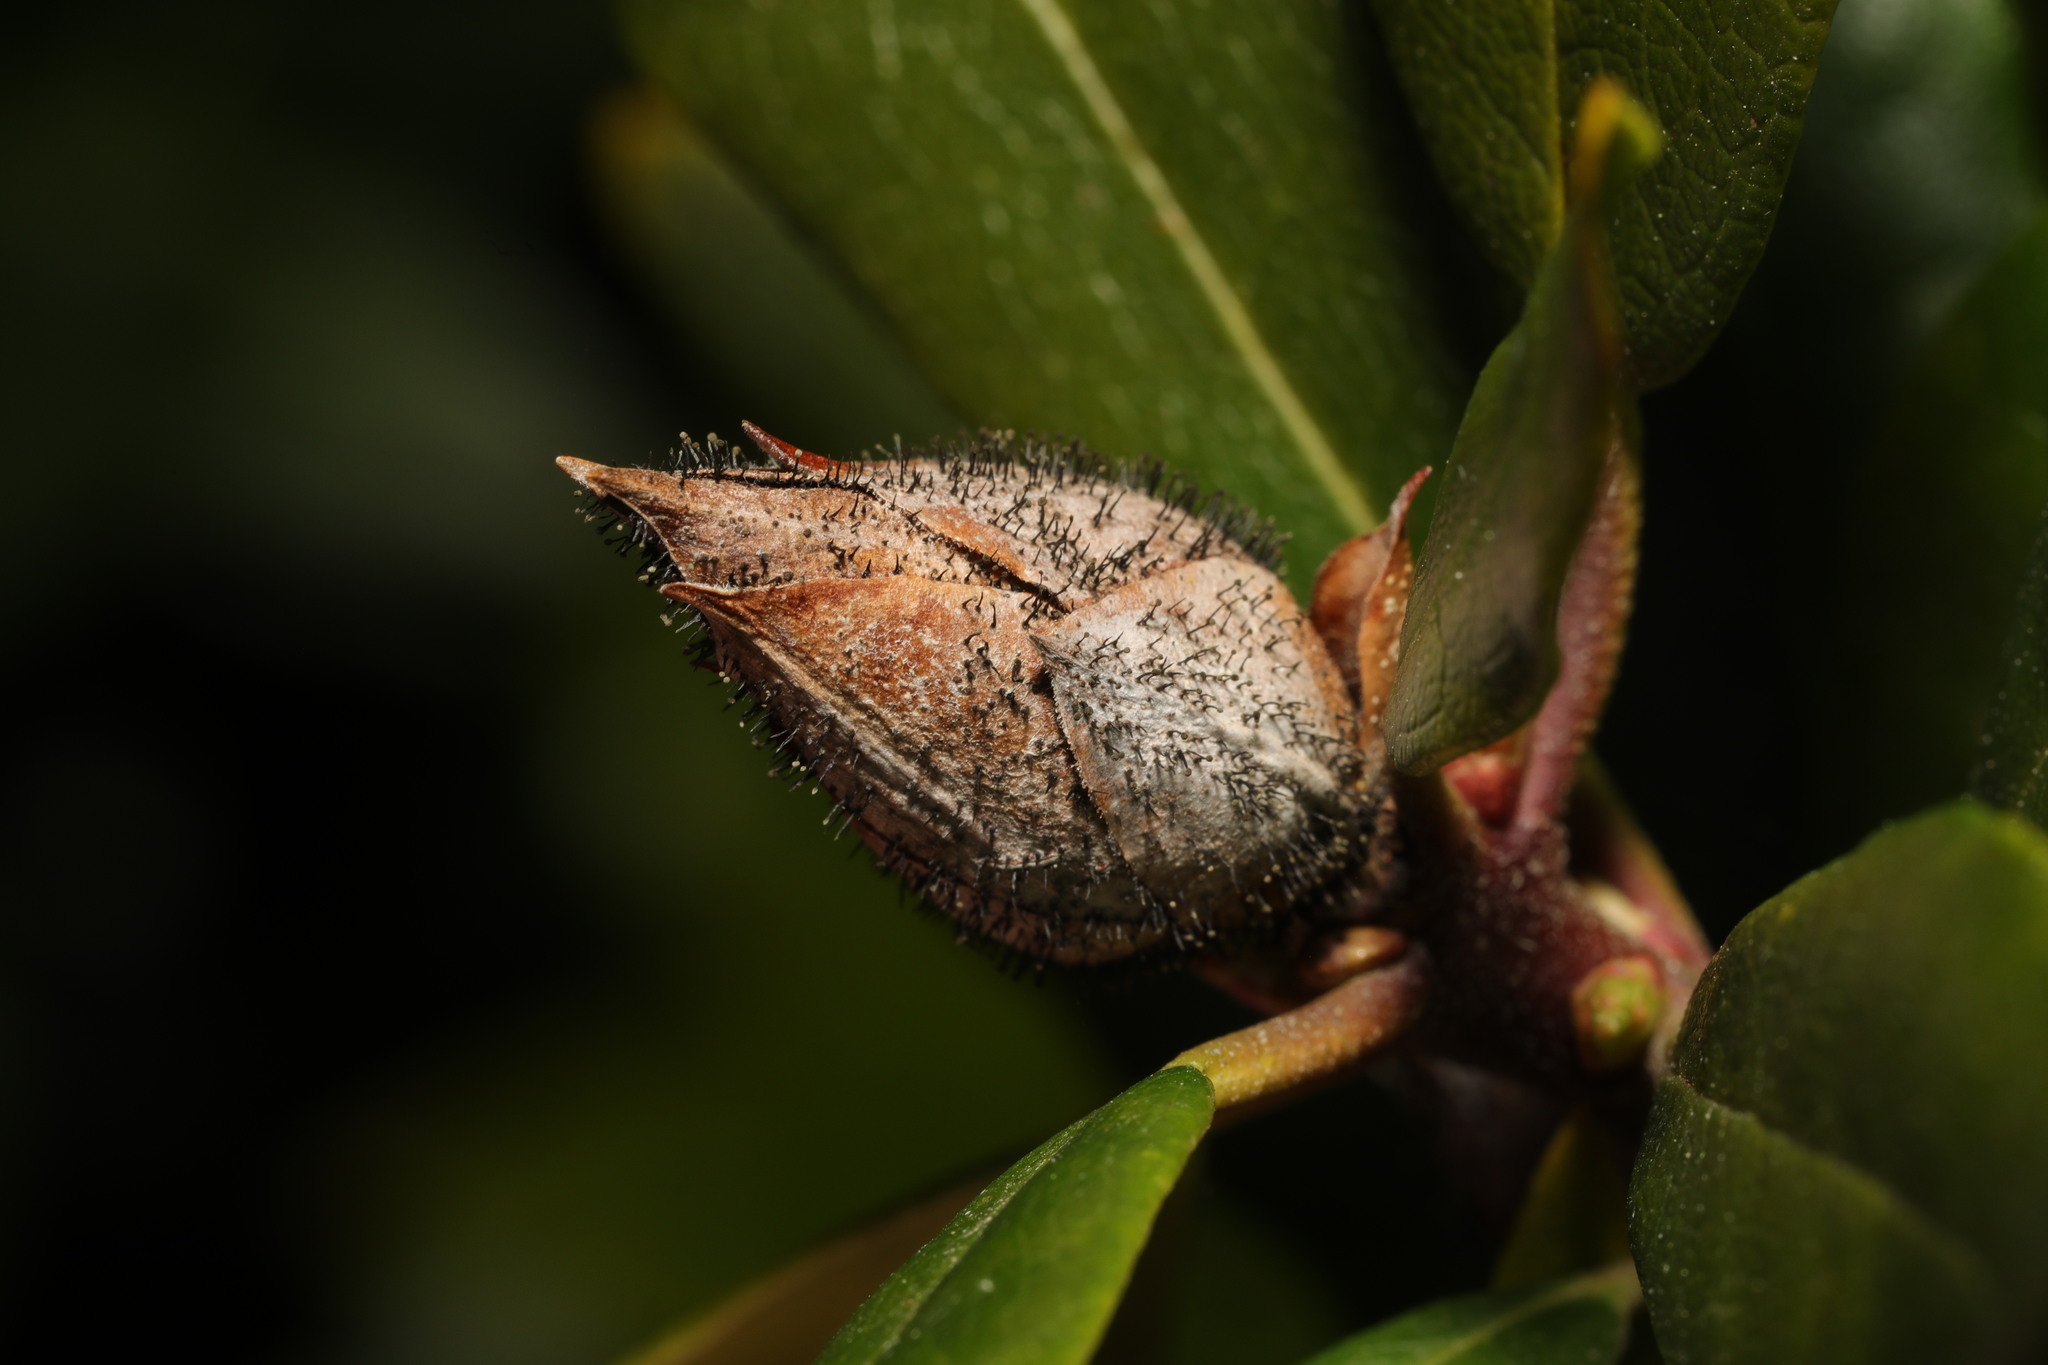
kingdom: Fungi
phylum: Ascomycota
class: Dothideomycetes
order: Pleosporales
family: Melanommataceae
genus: Seifertia
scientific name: Seifertia azaleae
